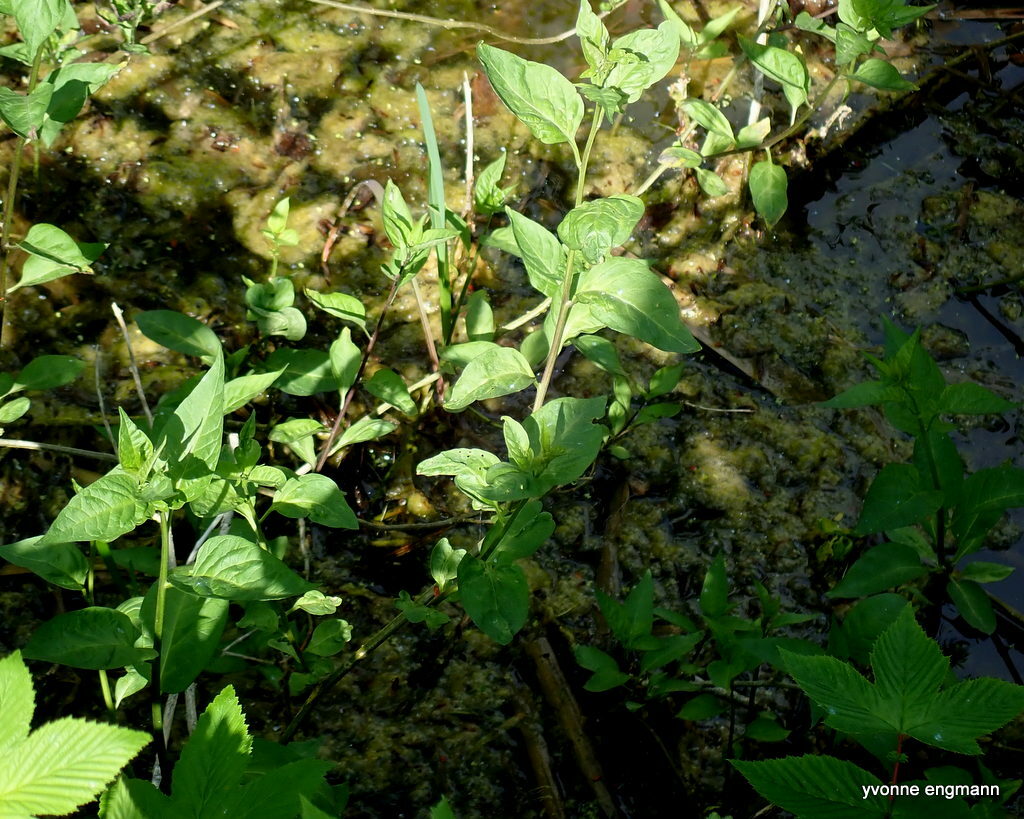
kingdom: Plantae
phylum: Tracheophyta
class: Magnoliopsida
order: Solanales
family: Solanaceae
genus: Solanum
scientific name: Solanum dulcamara
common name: Climbing nightshade
